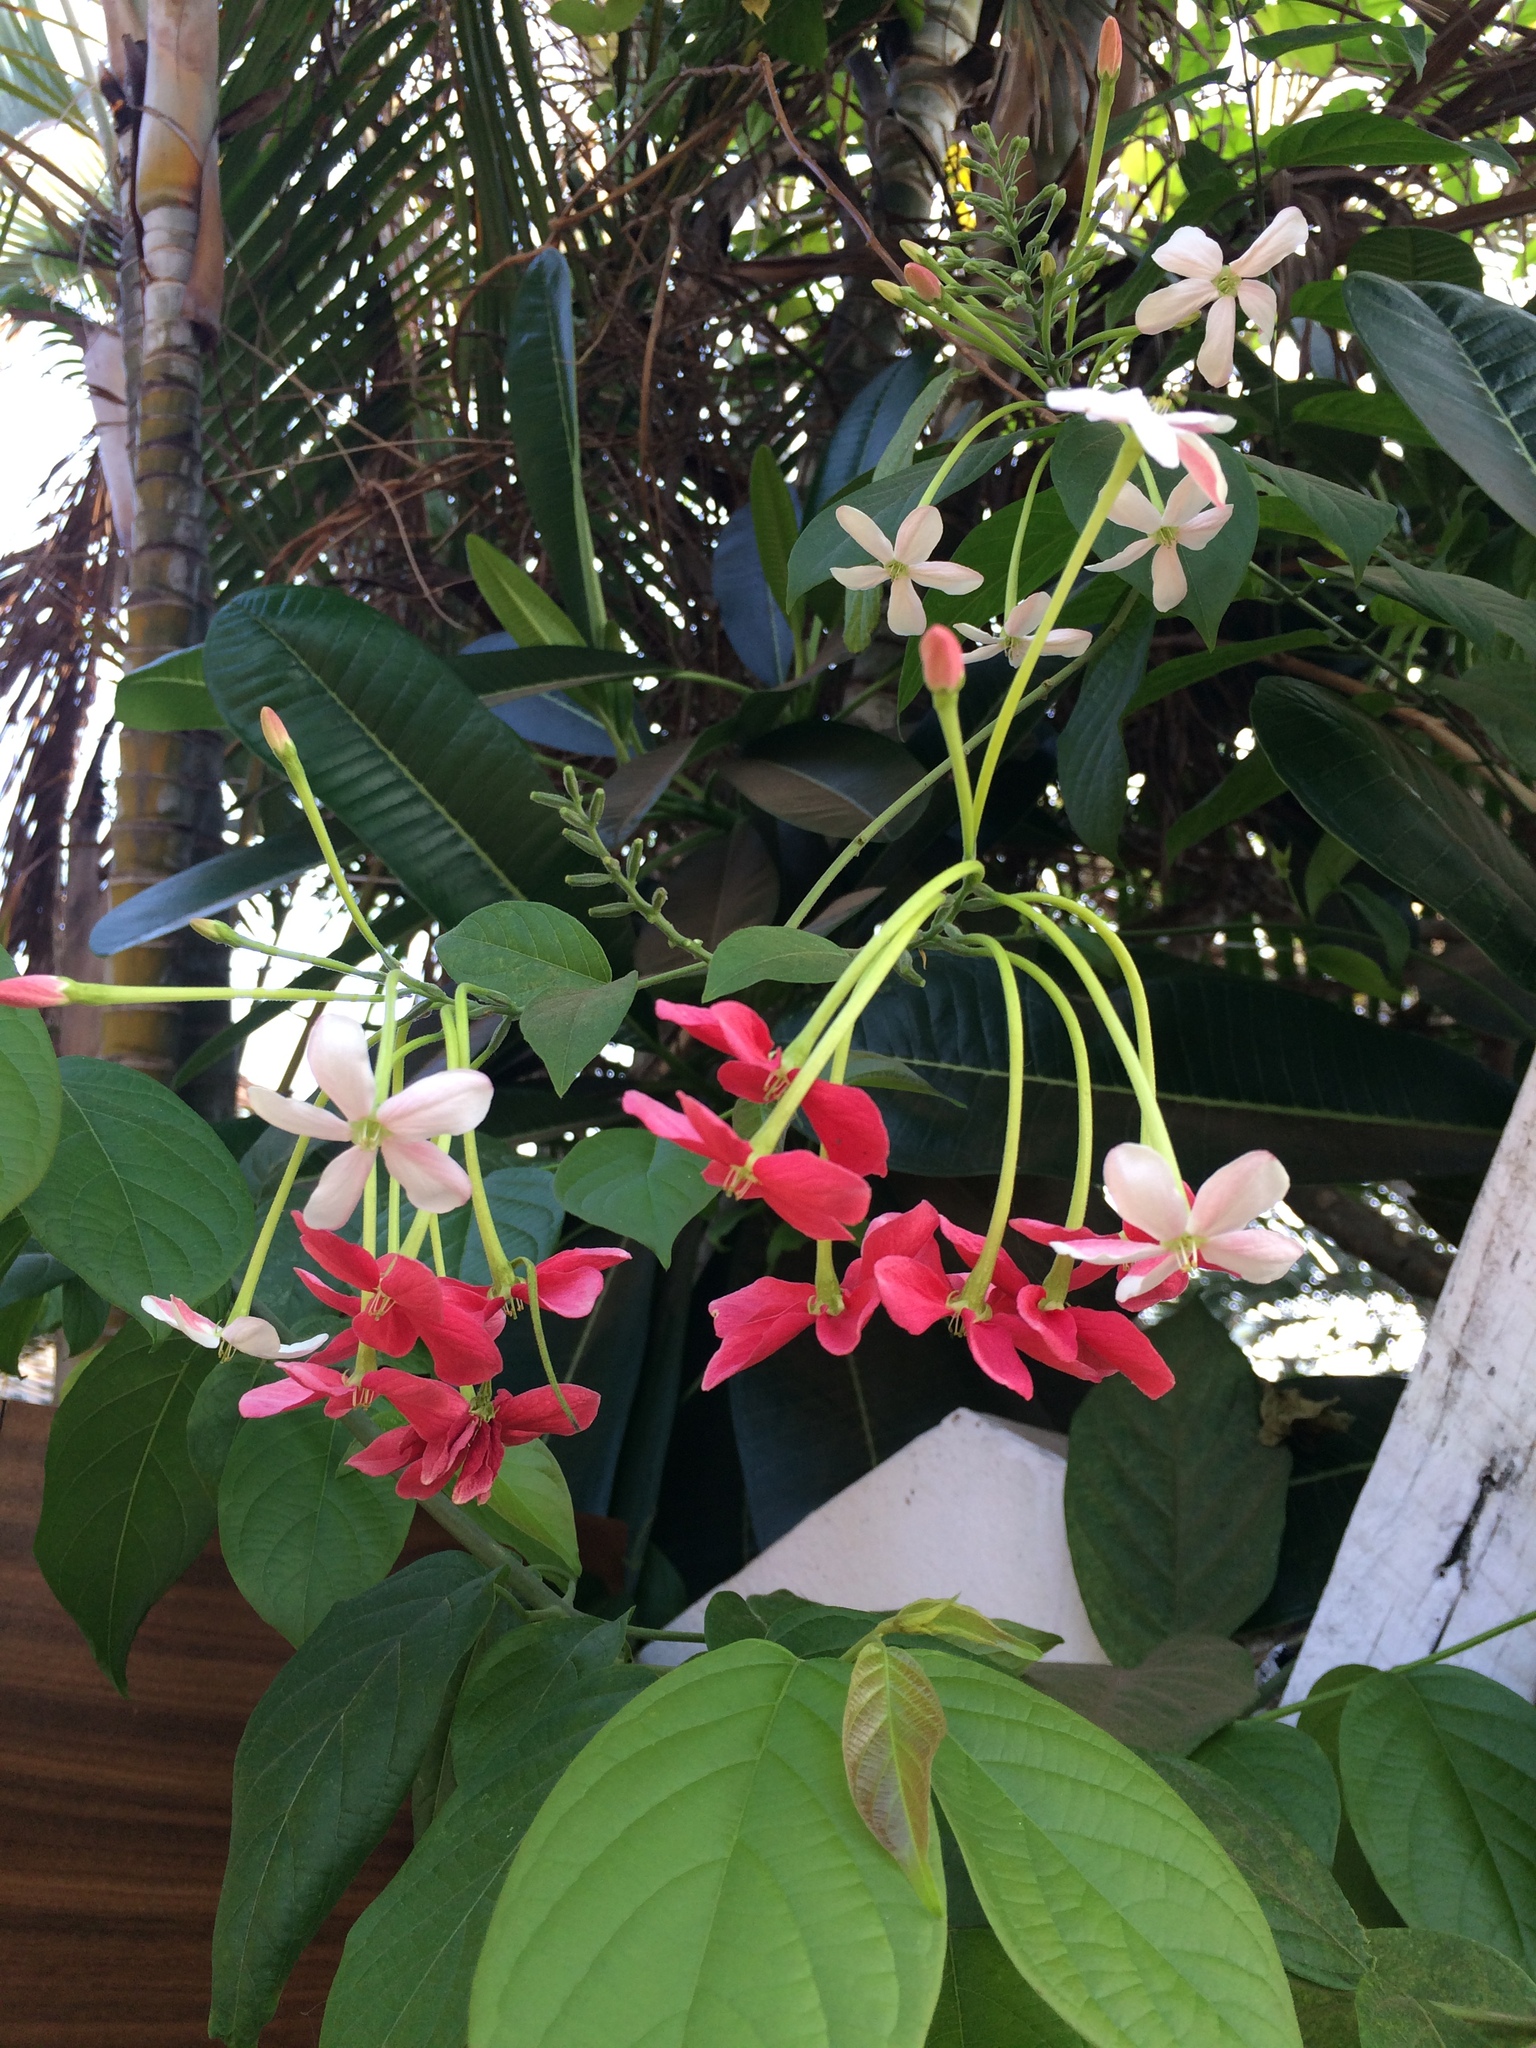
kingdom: Plantae
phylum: Tracheophyta
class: Magnoliopsida
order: Myrtales
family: Combretaceae
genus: Combretum
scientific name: Combretum indicum
